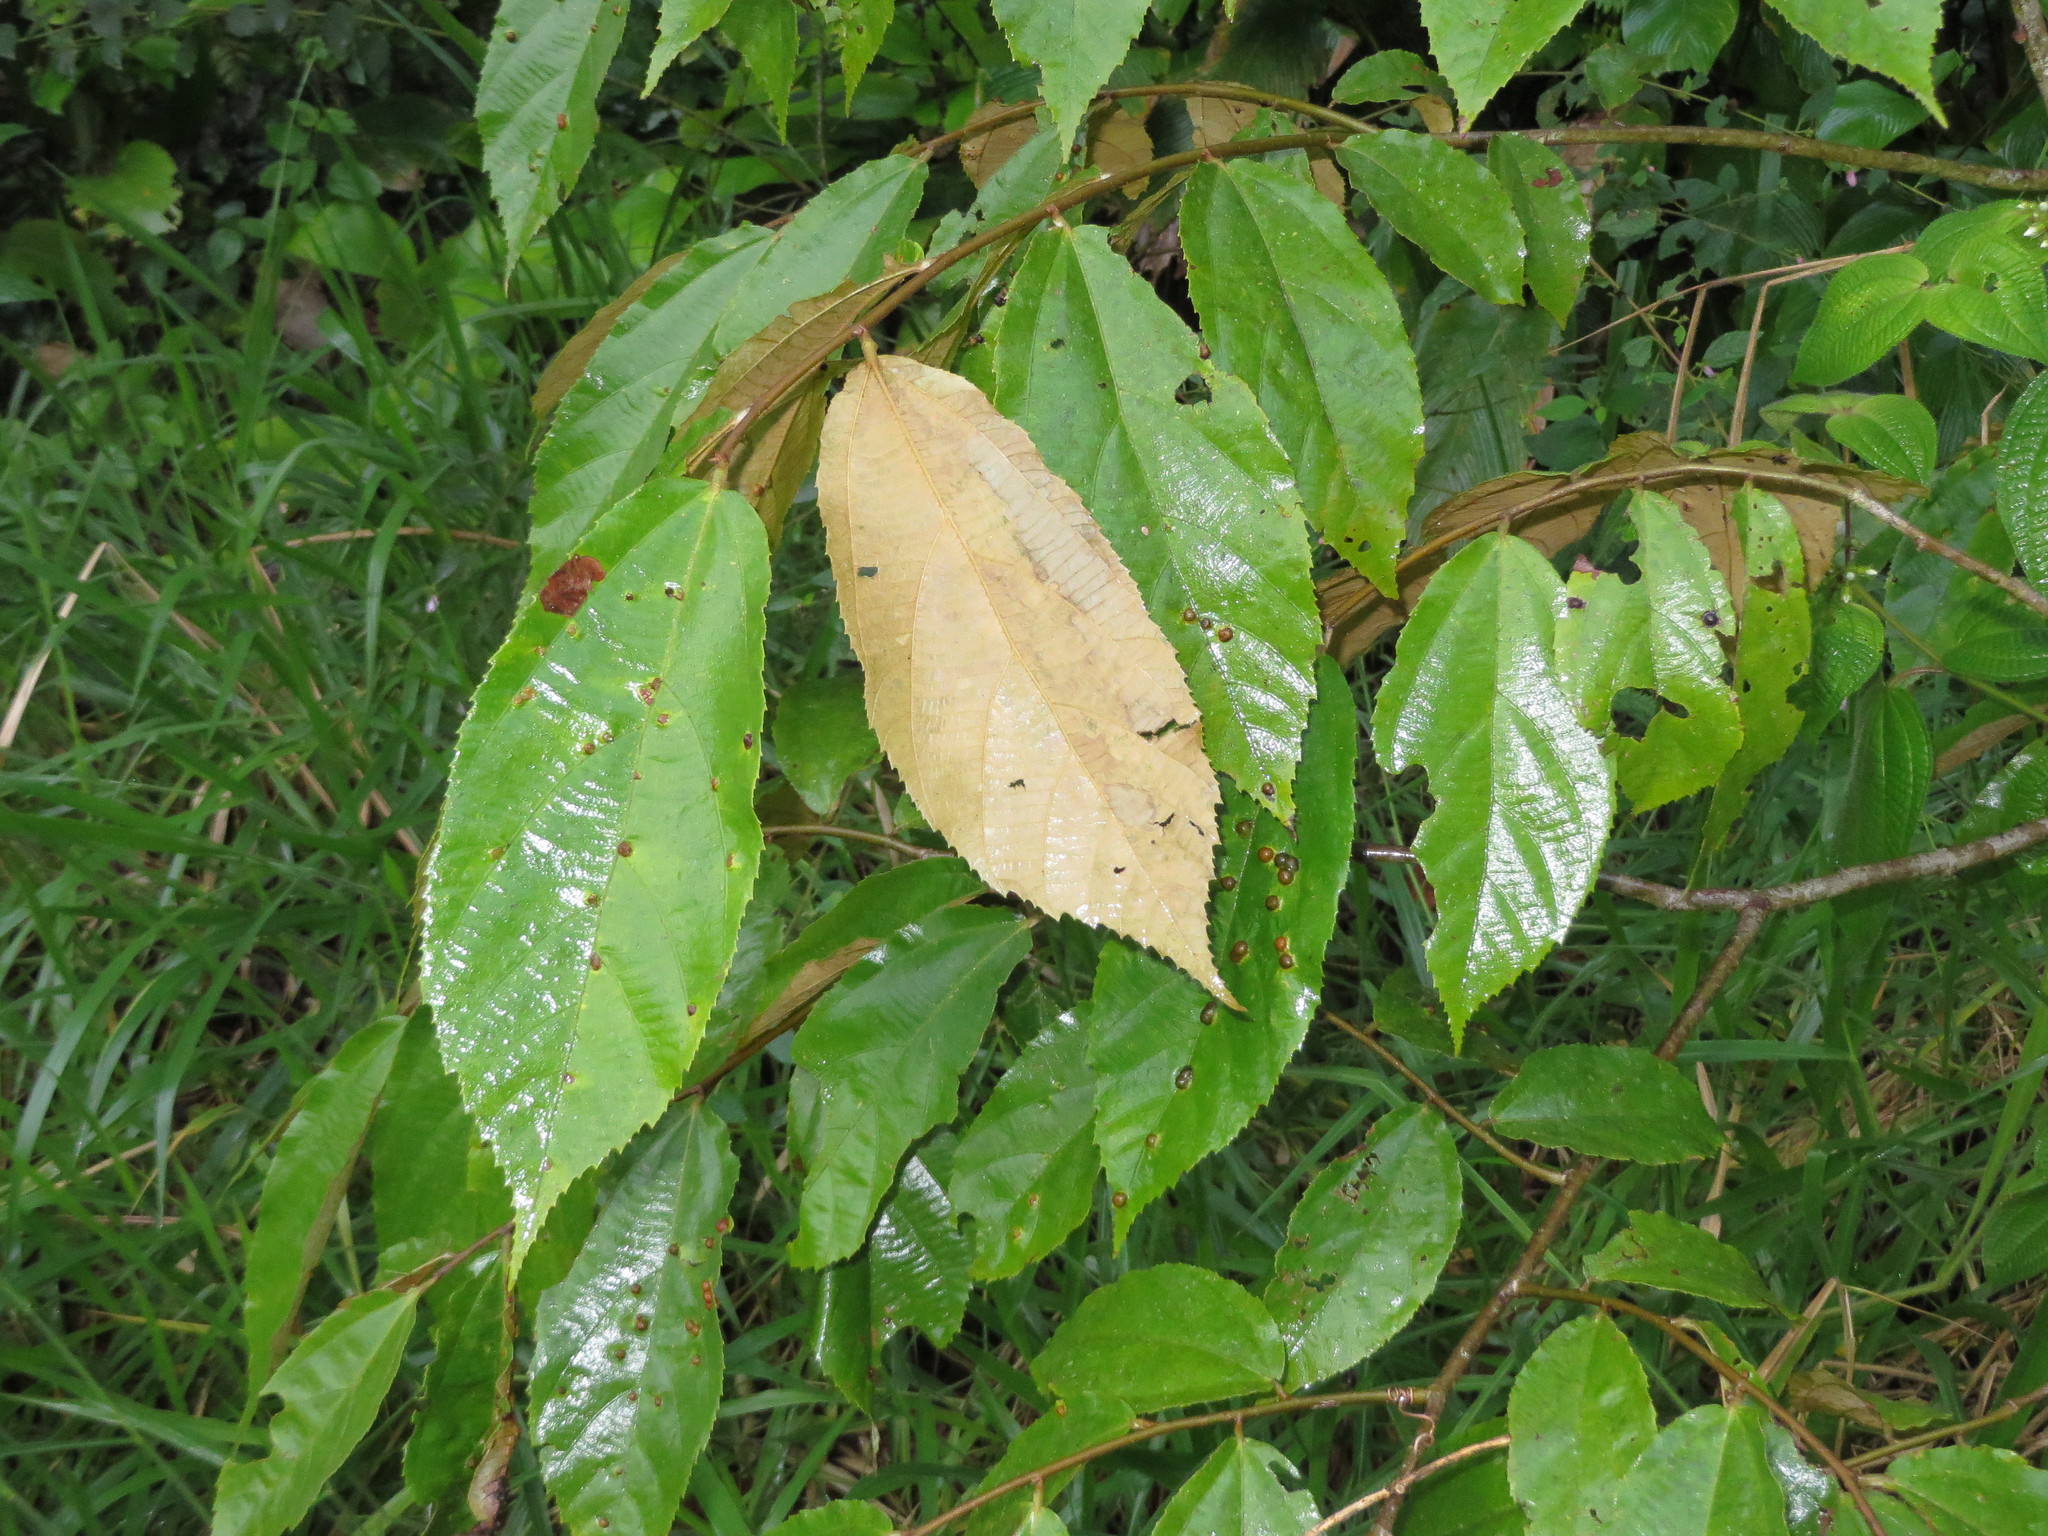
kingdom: Plantae
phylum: Tracheophyta
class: Magnoliopsida
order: Malvales
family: Malvaceae
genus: Luehea
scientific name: Luehea seemannii
